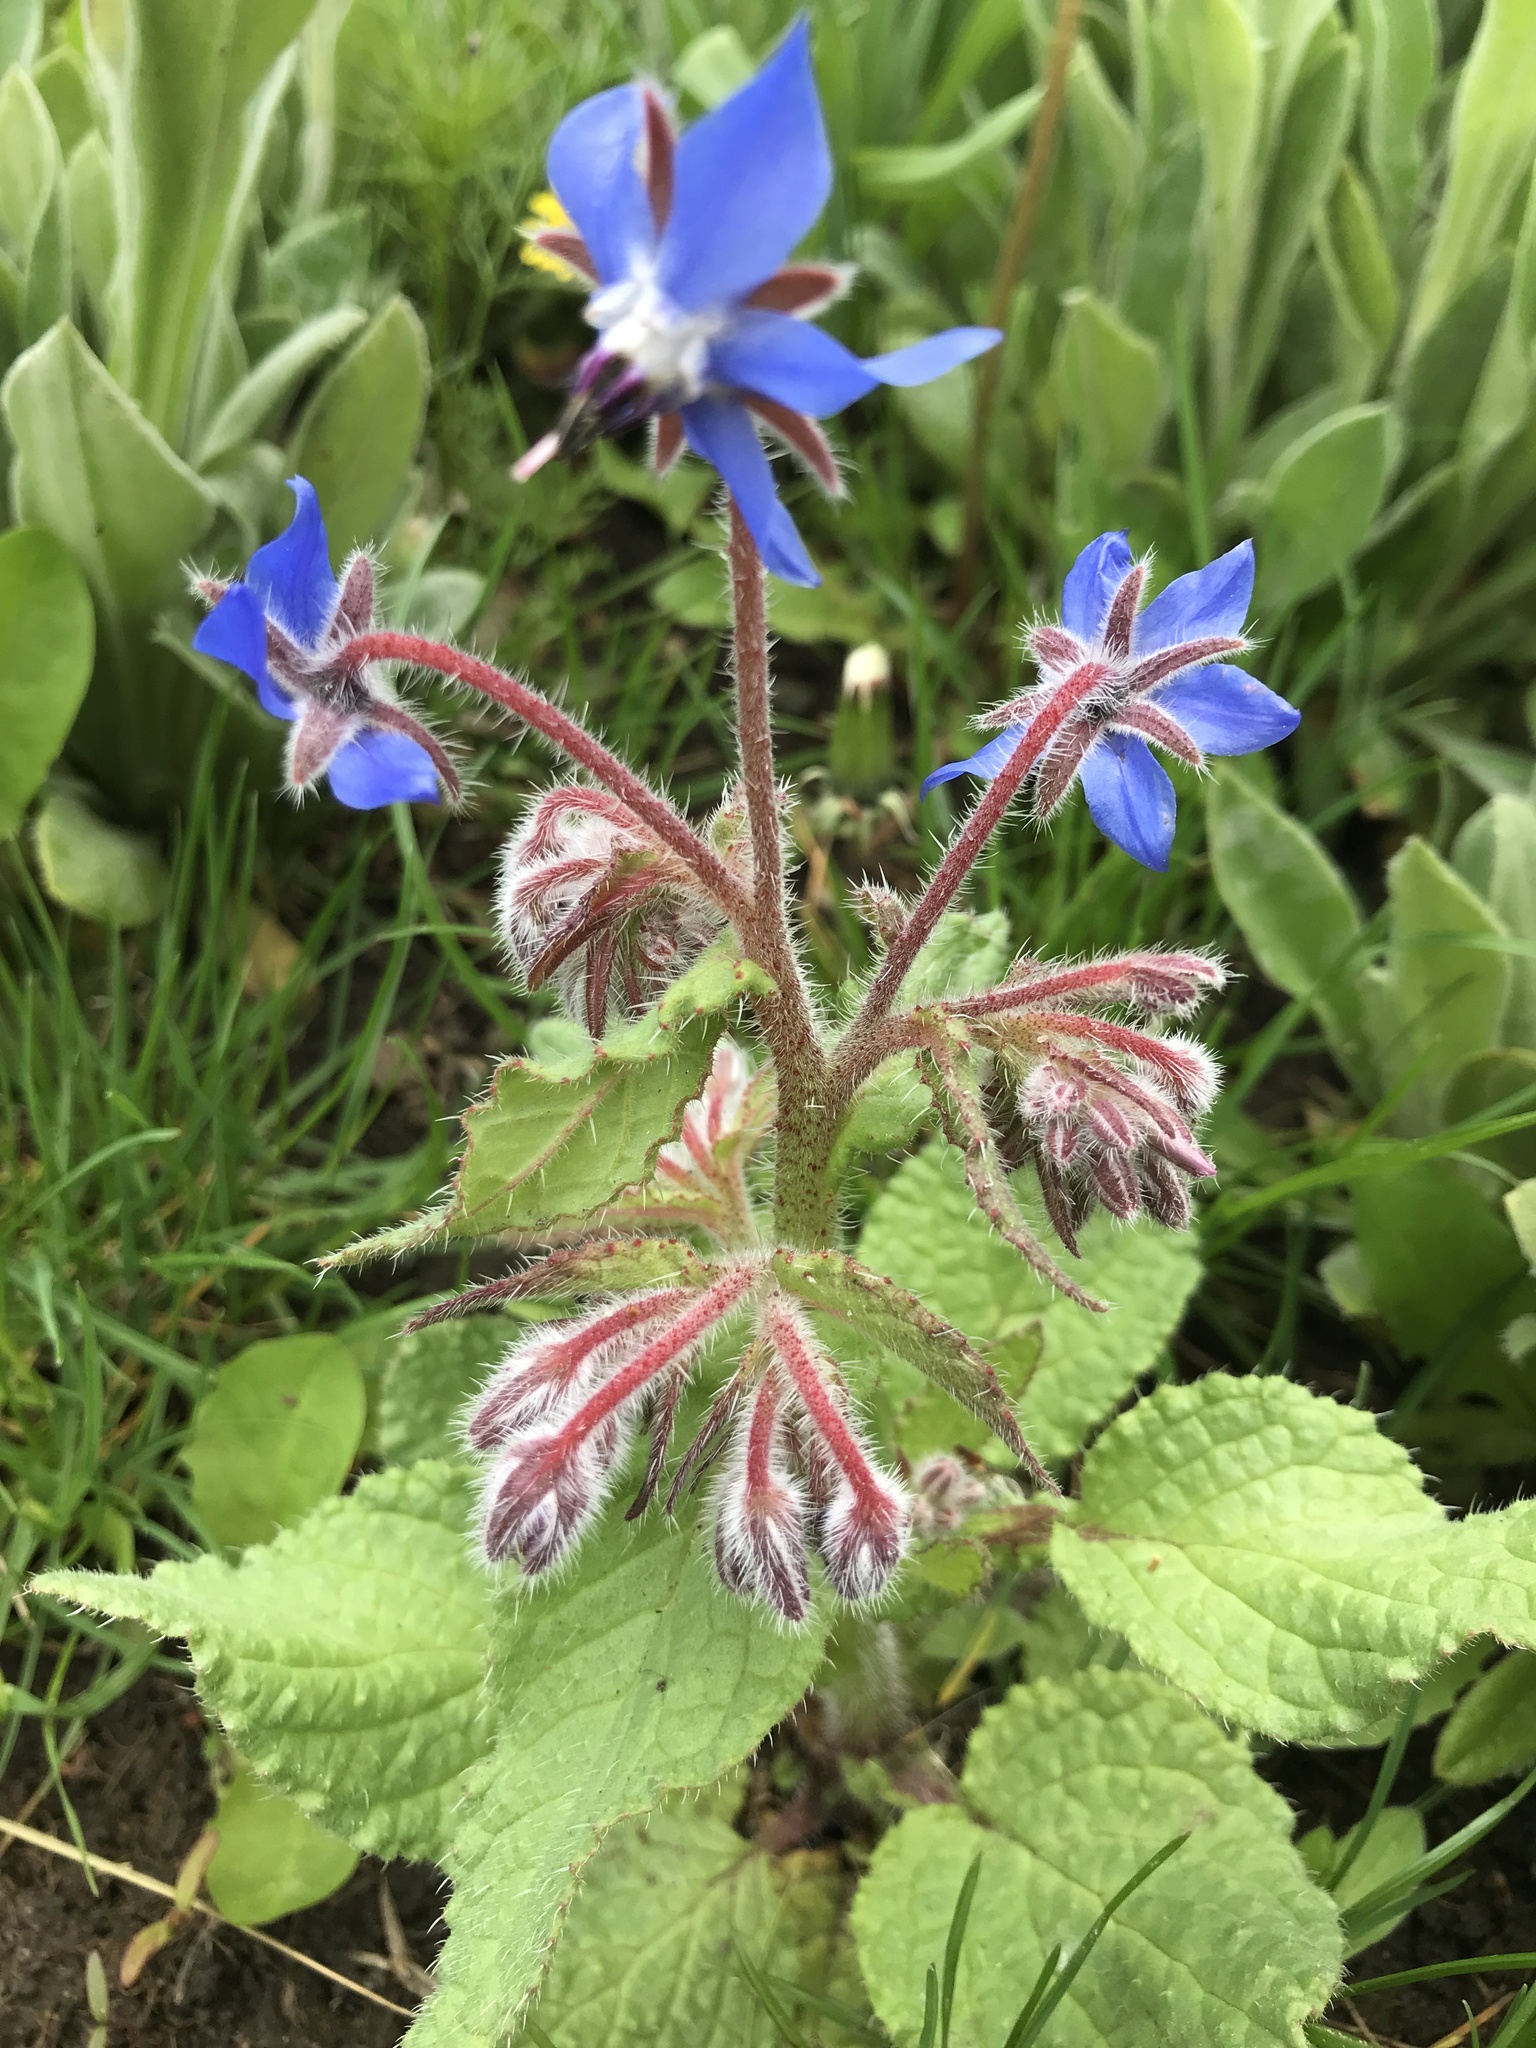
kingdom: Plantae
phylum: Tracheophyta
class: Magnoliopsida
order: Boraginales
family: Boraginaceae
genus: Borago
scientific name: Borago officinalis
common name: Borage
